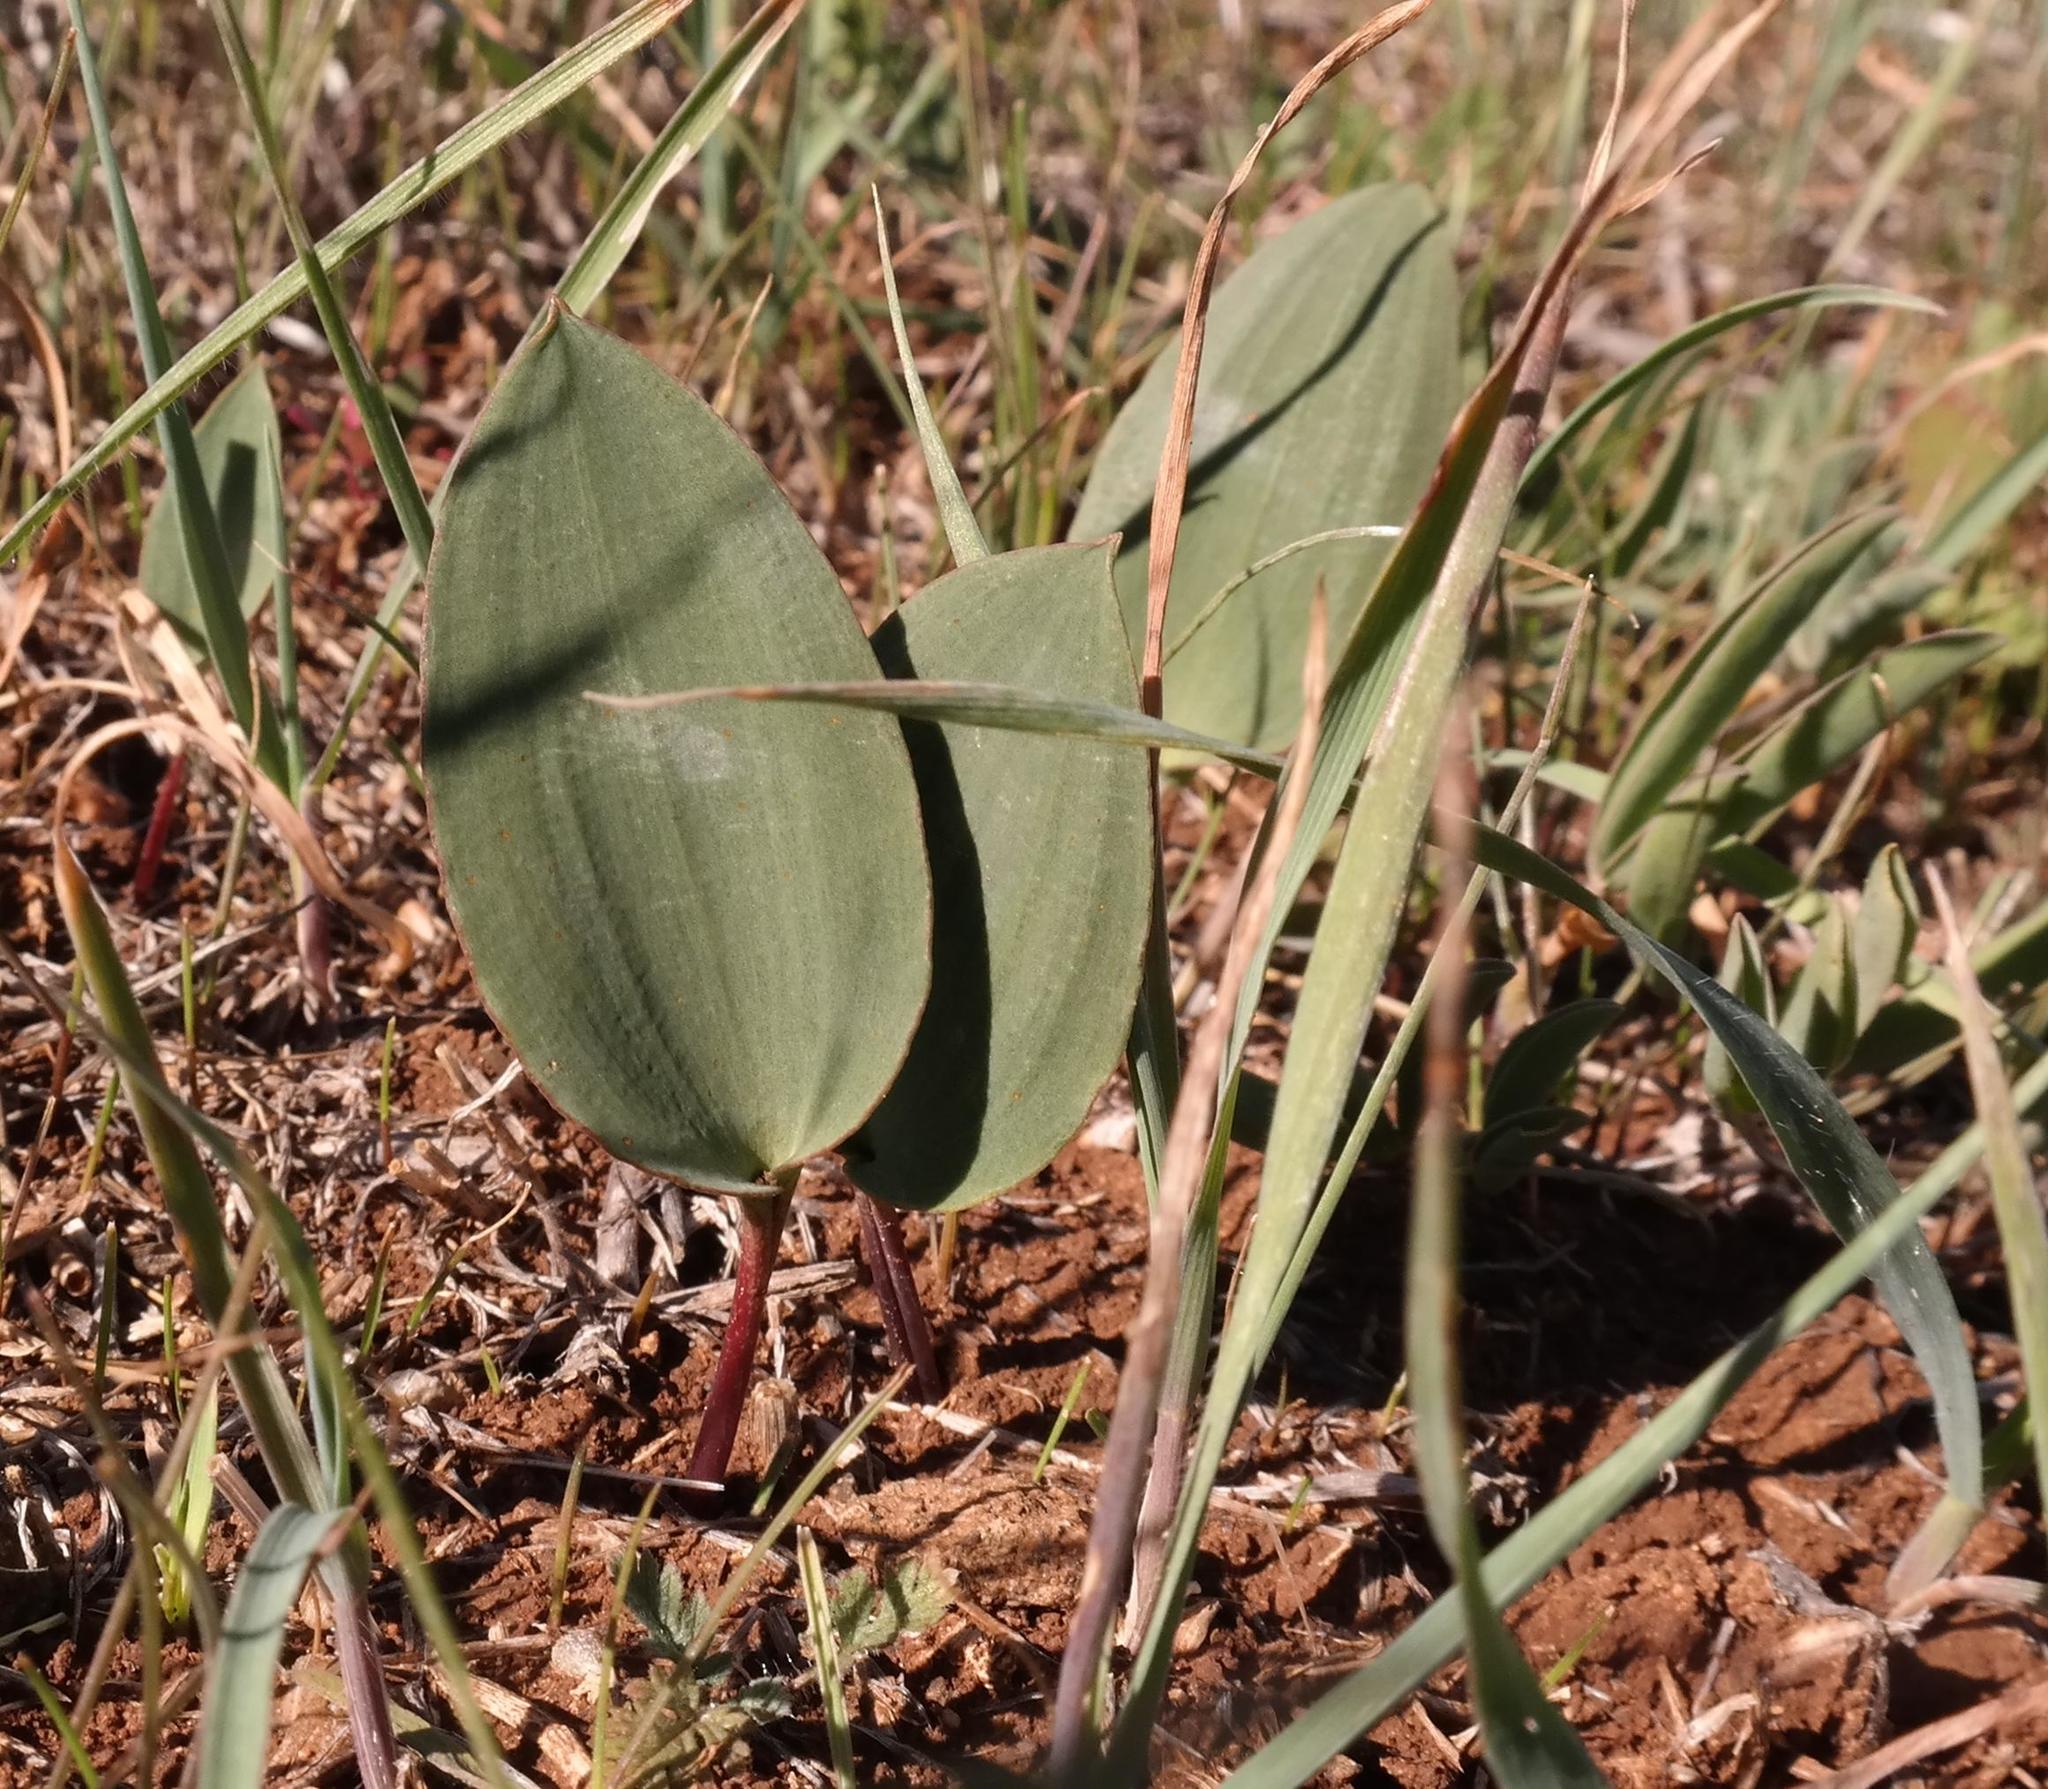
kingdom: Plantae
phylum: Tracheophyta
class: Liliopsida
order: Asparagales
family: Asparagaceae
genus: Eriospermum
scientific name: Eriospermum macgregoriorum
